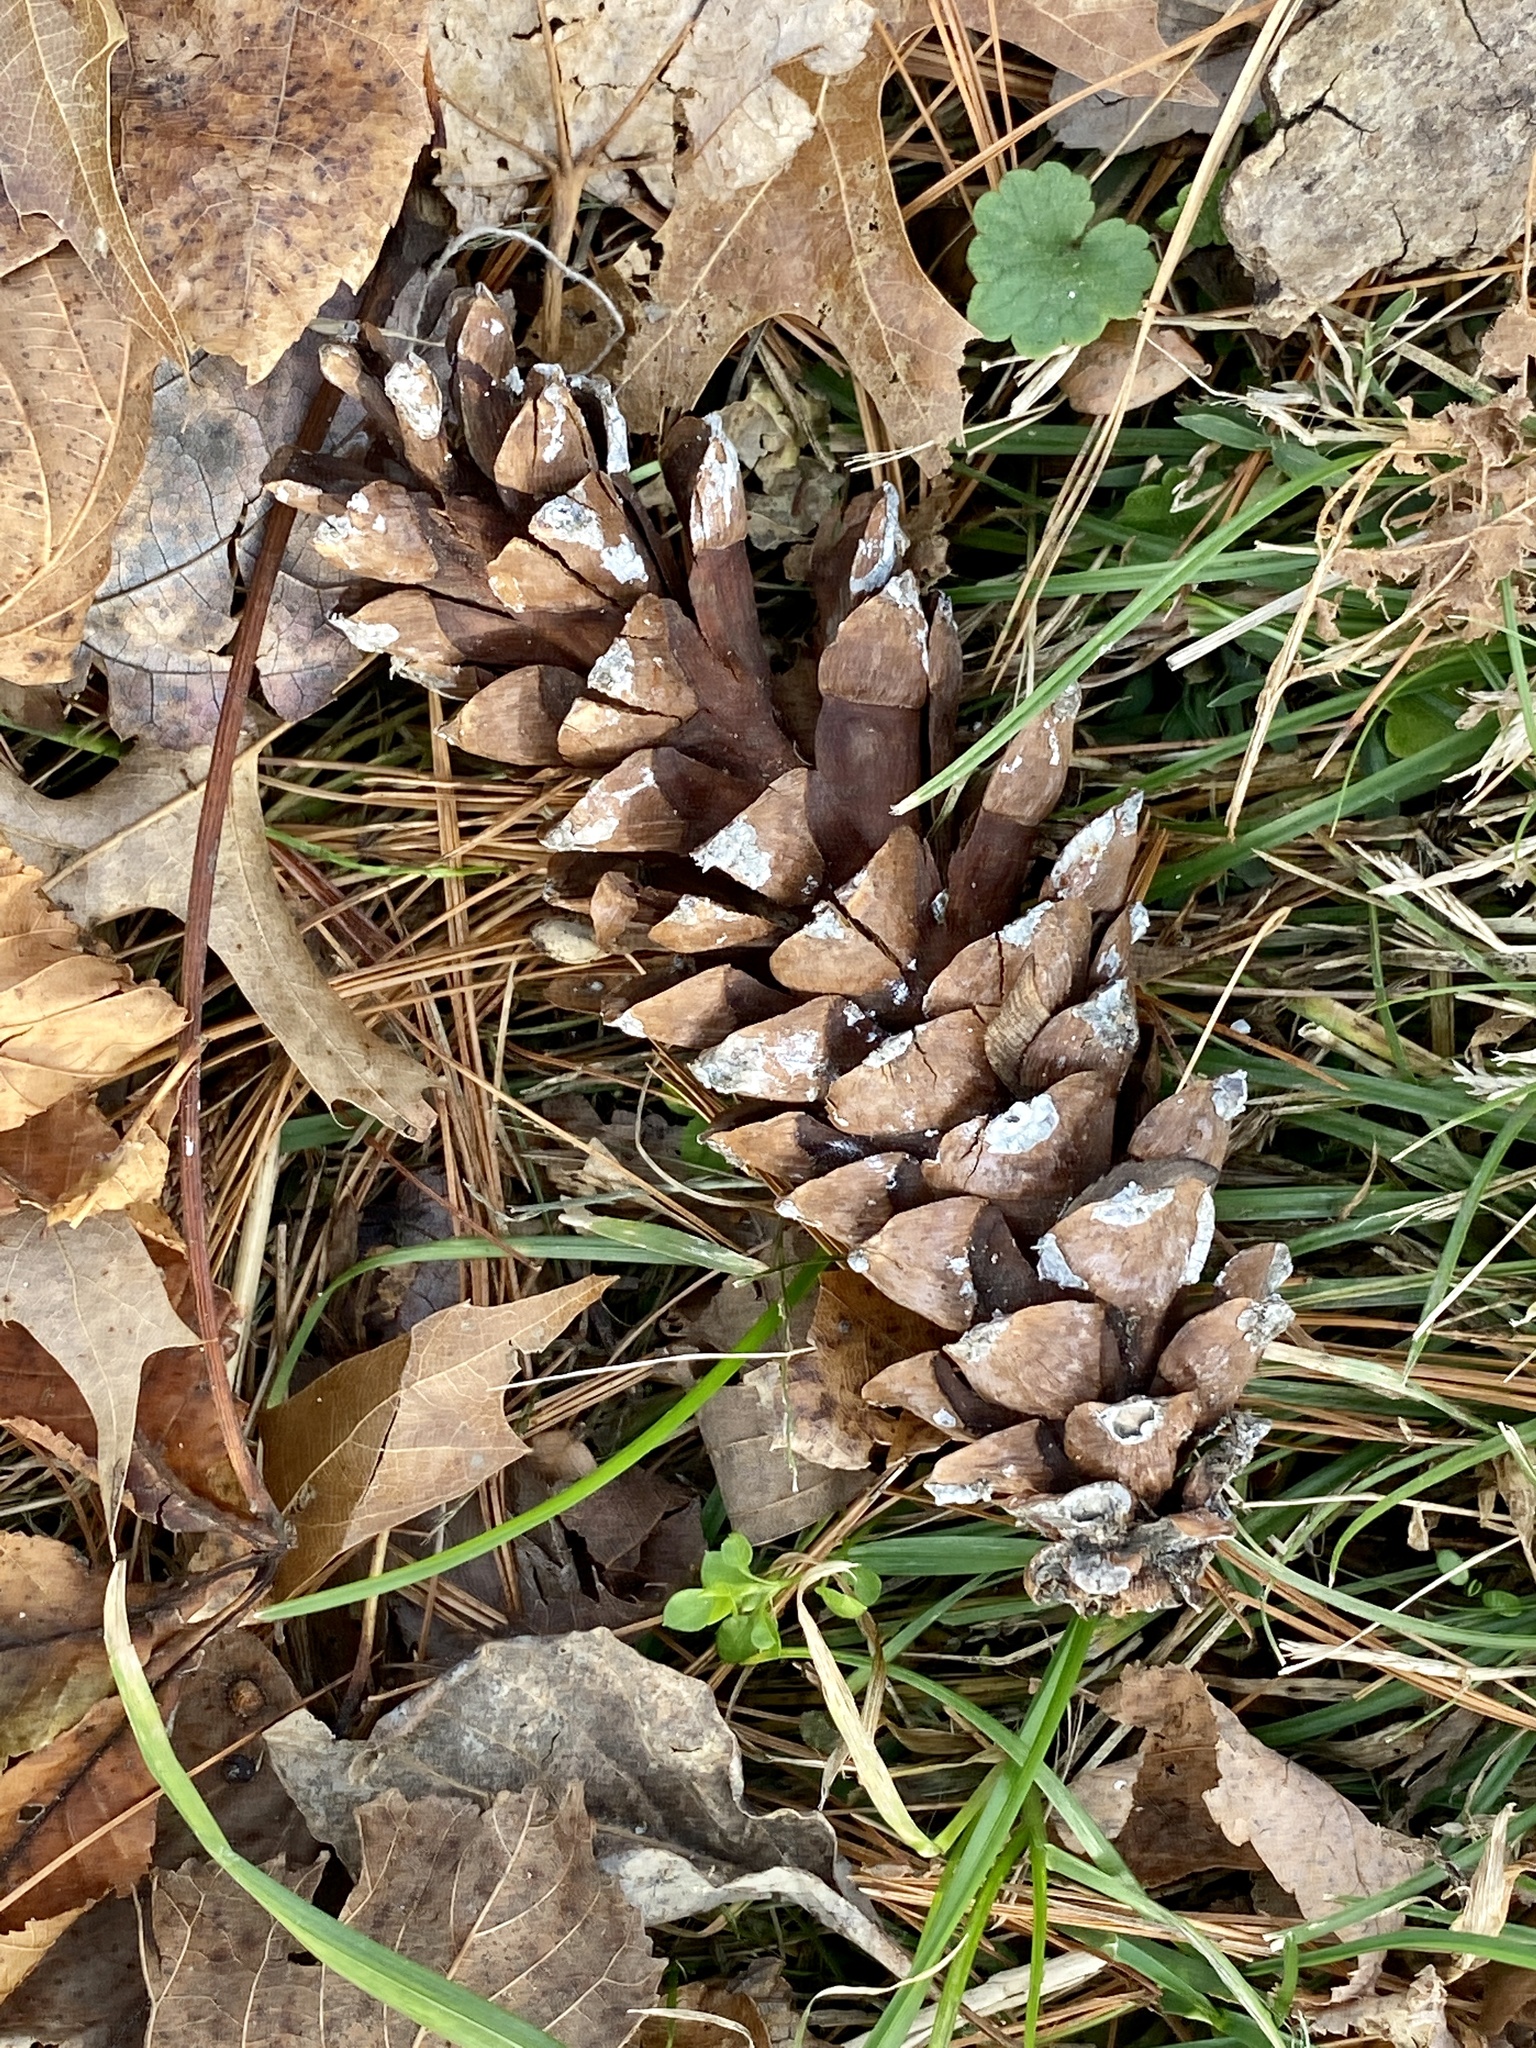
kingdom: Plantae
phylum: Tracheophyta
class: Pinopsida
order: Pinales
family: Pinaceae
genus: Pinus
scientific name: Pinus strobus
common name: Weymouth pine
